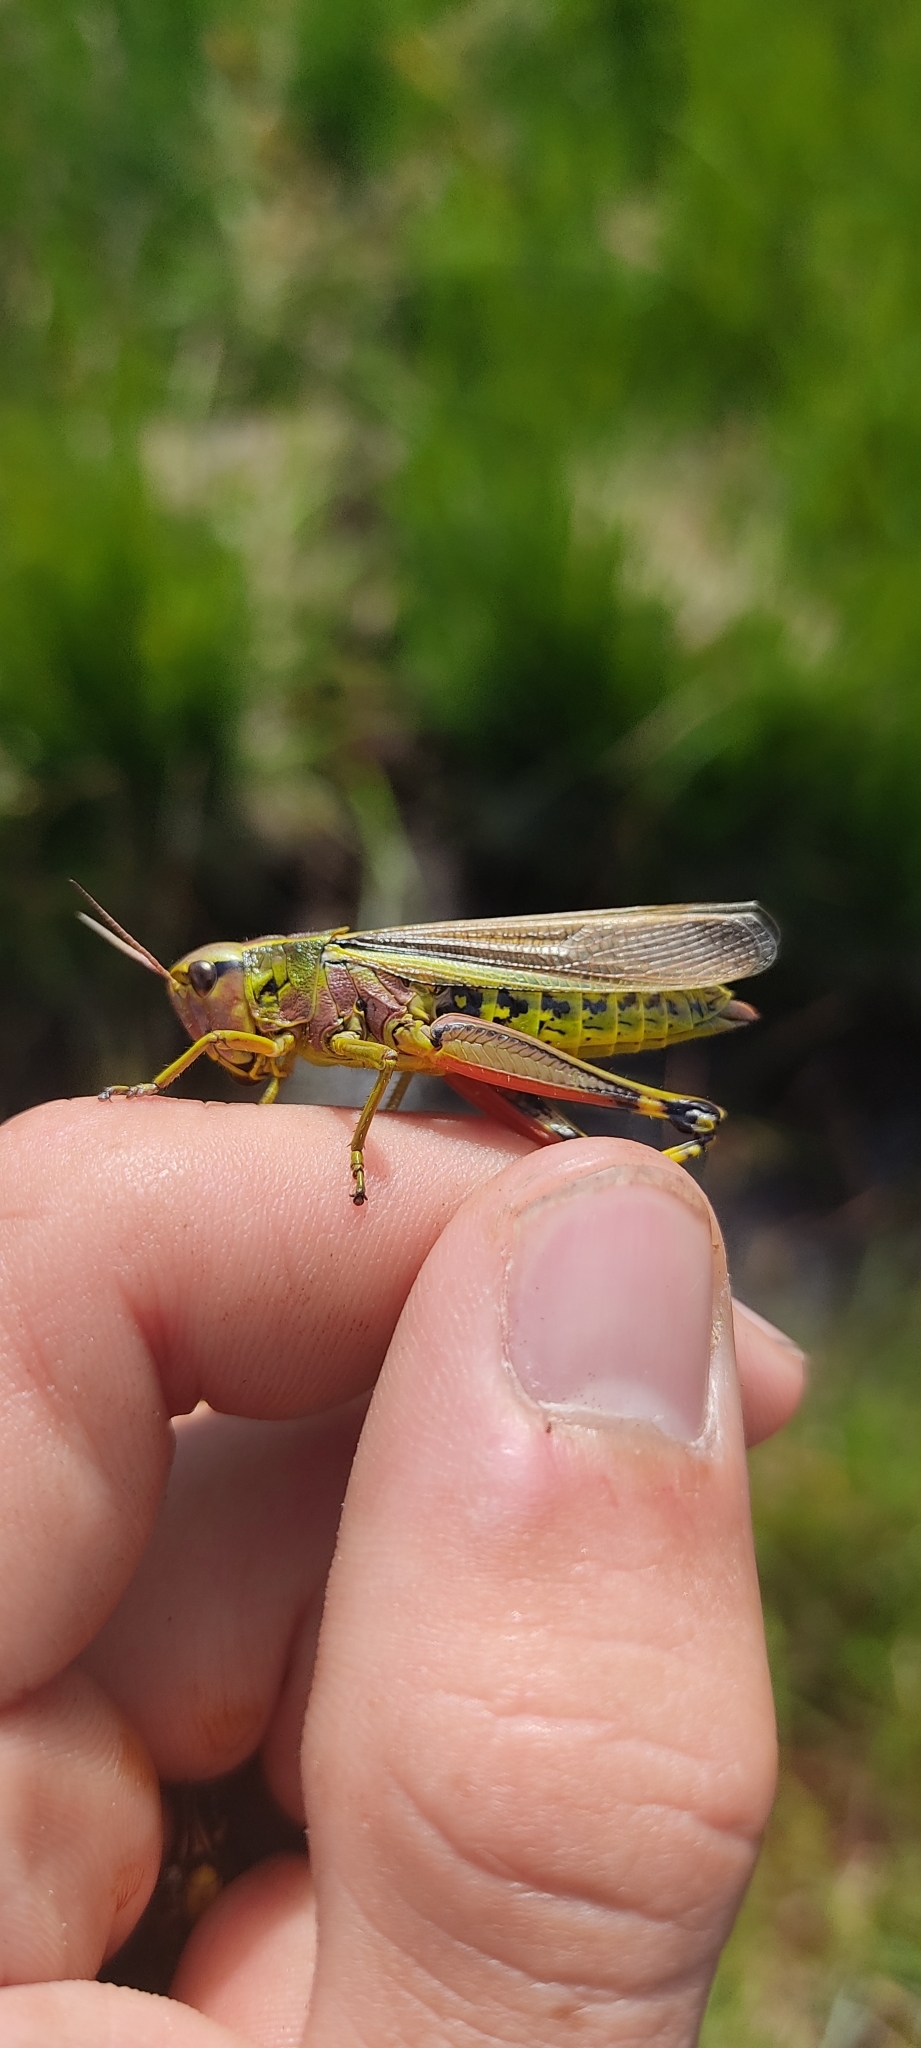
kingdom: Animalia
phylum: Arthropoda
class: Insecta
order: Orthoptera
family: Acrididae
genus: Stethophyma
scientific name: Stethophyma grossum
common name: Large marsh grasshopper
